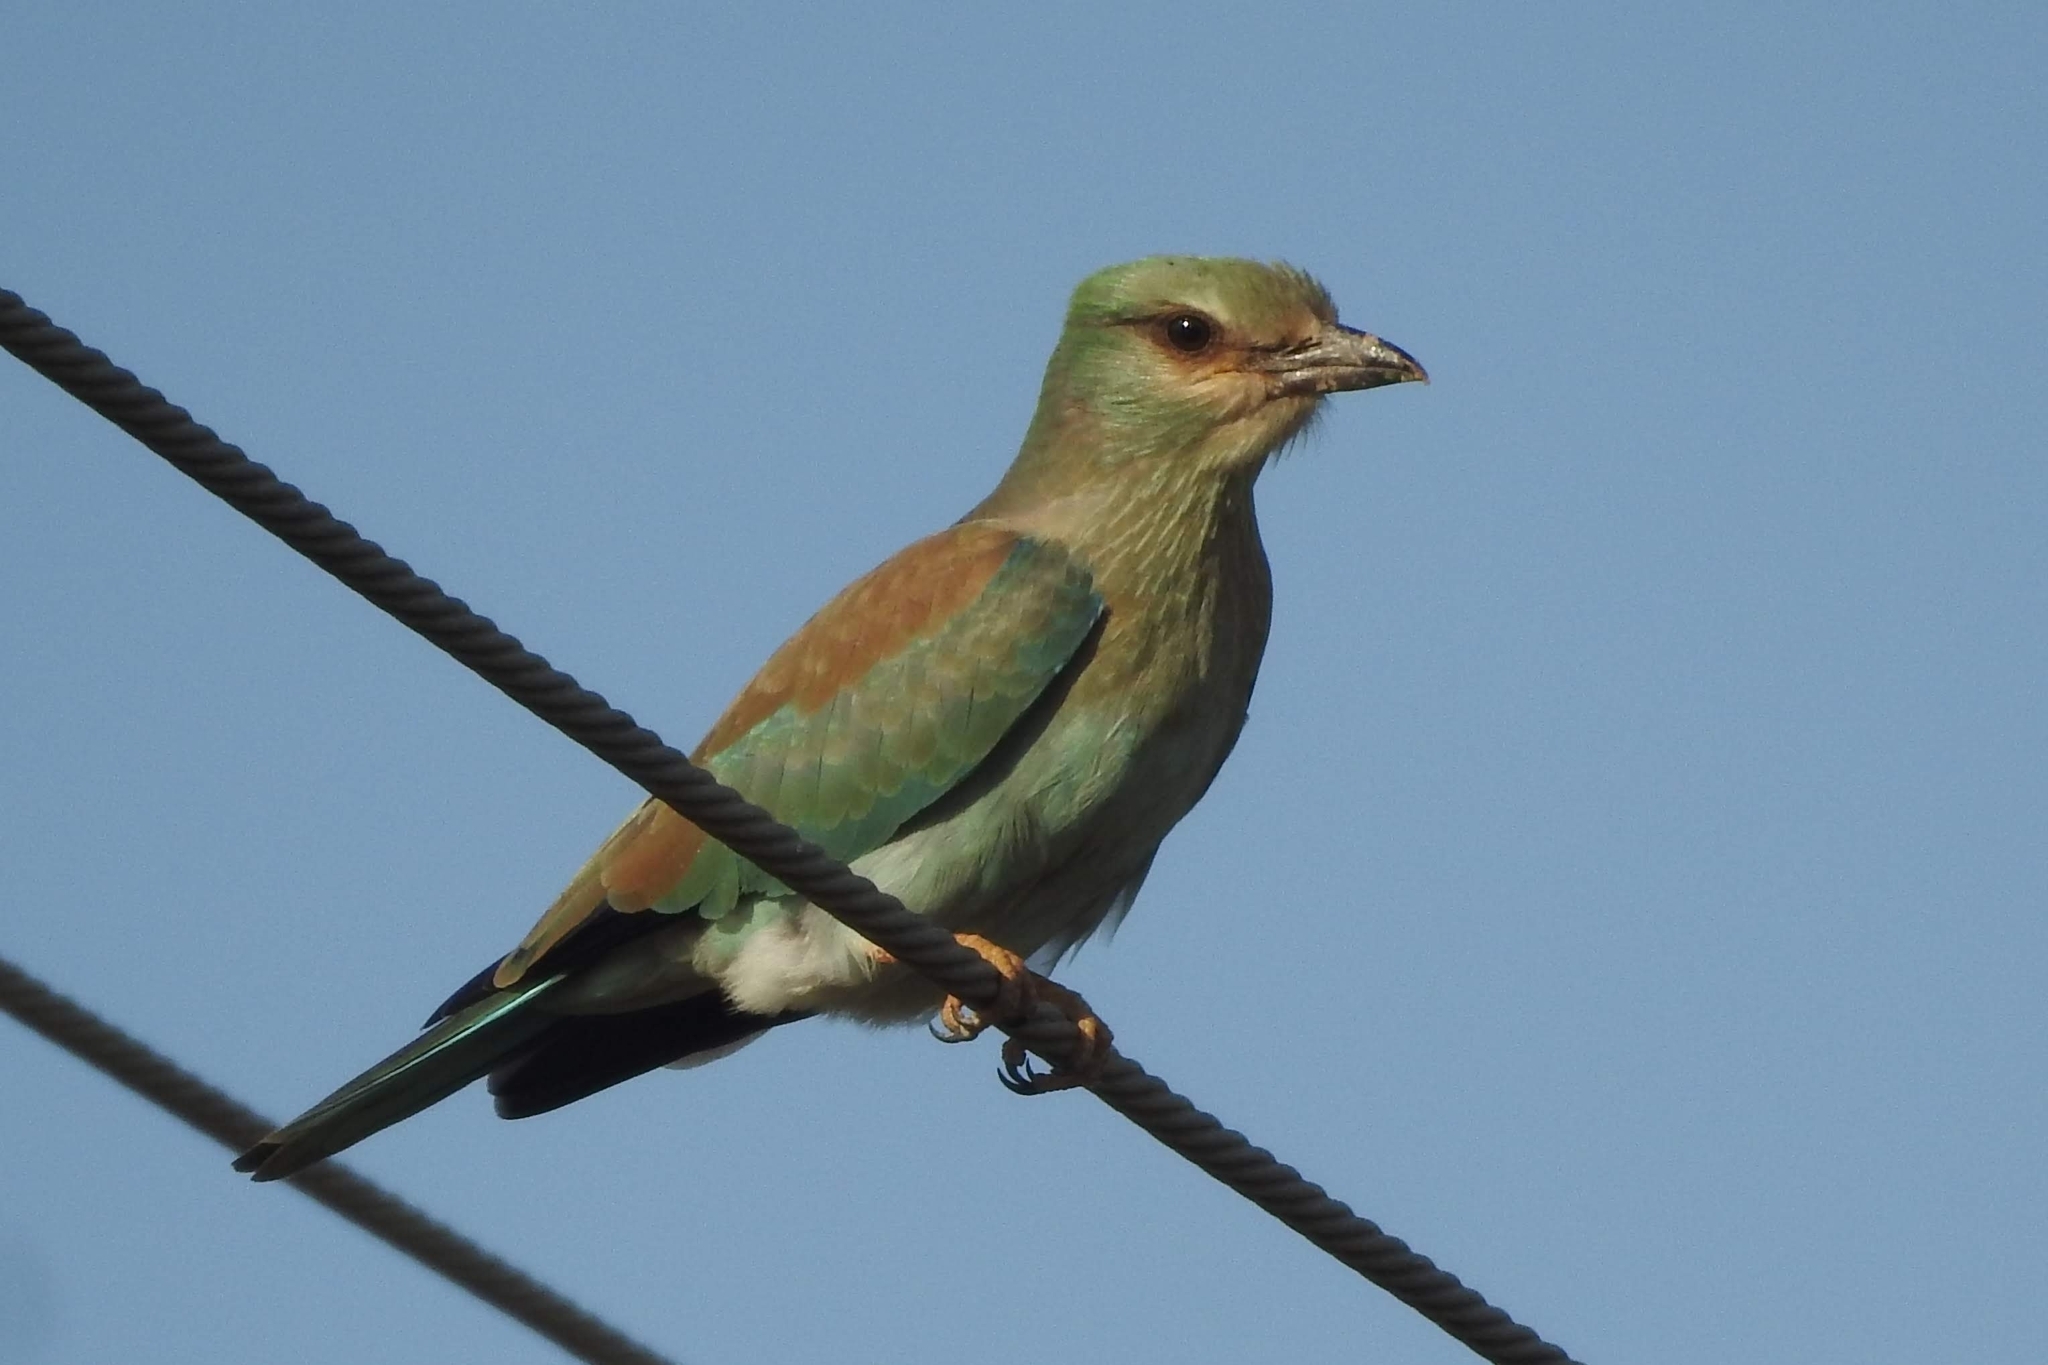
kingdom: Animalia
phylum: Chordata
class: Aves
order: Coraciiformes
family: Coraciidae
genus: Coracias
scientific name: Coracias garrulus
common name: European roller
